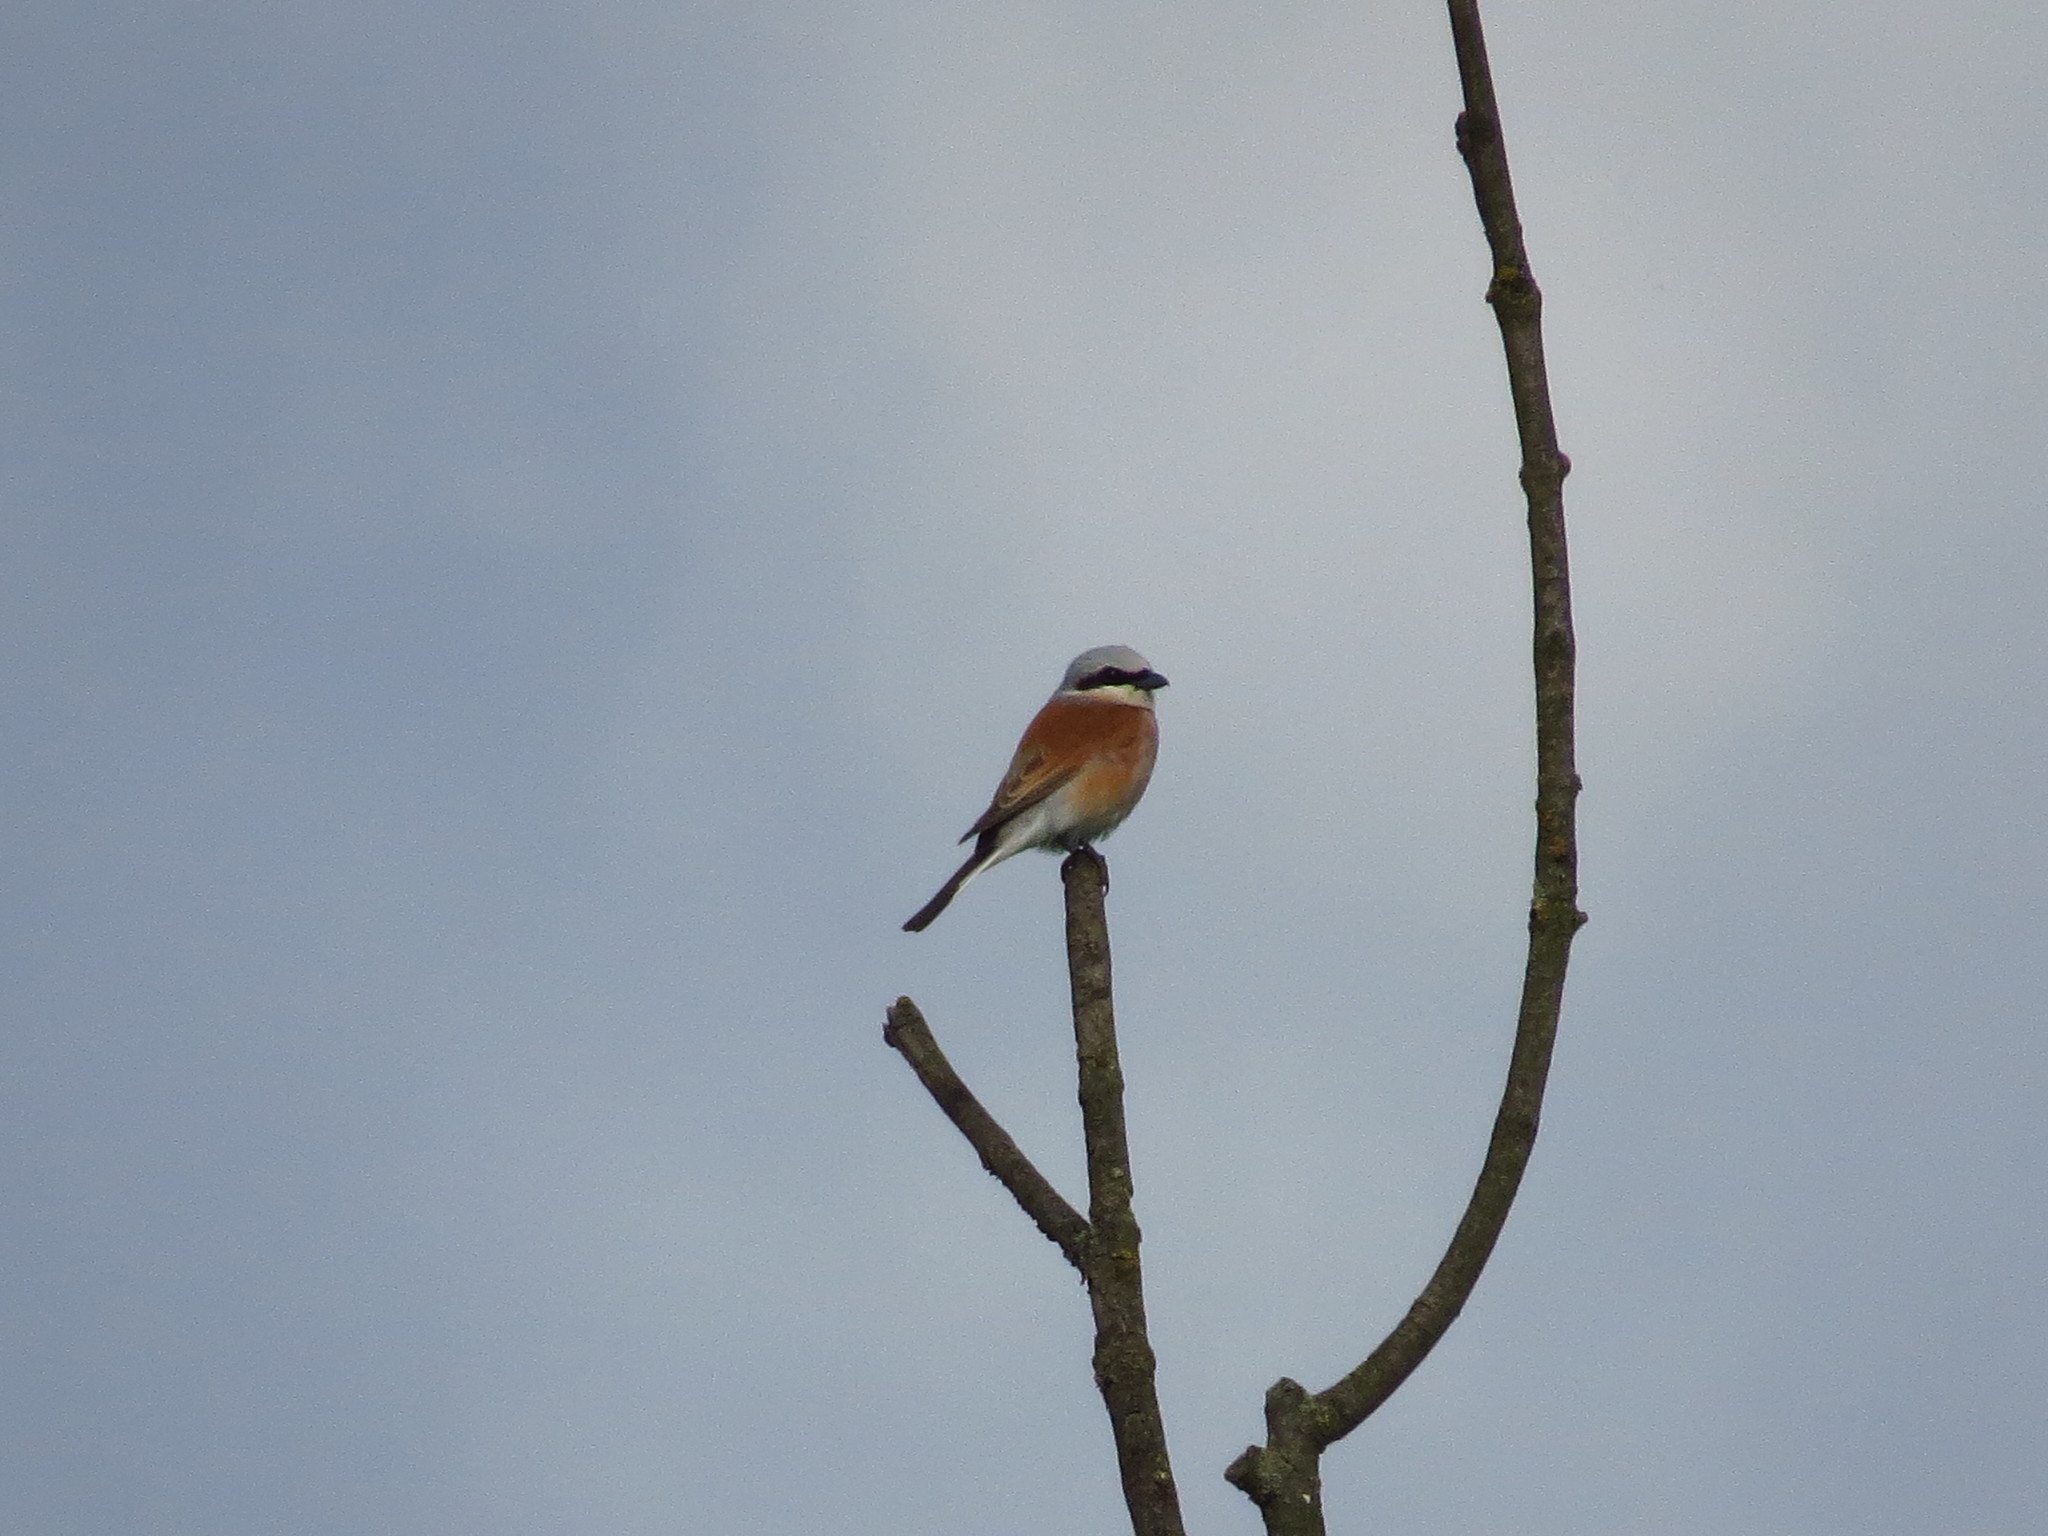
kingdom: Animalia
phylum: Chordata
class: Aves
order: Passeriformes
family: Laniidae
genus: Lanius
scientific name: Lanius collurio
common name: Red-backed shrike
